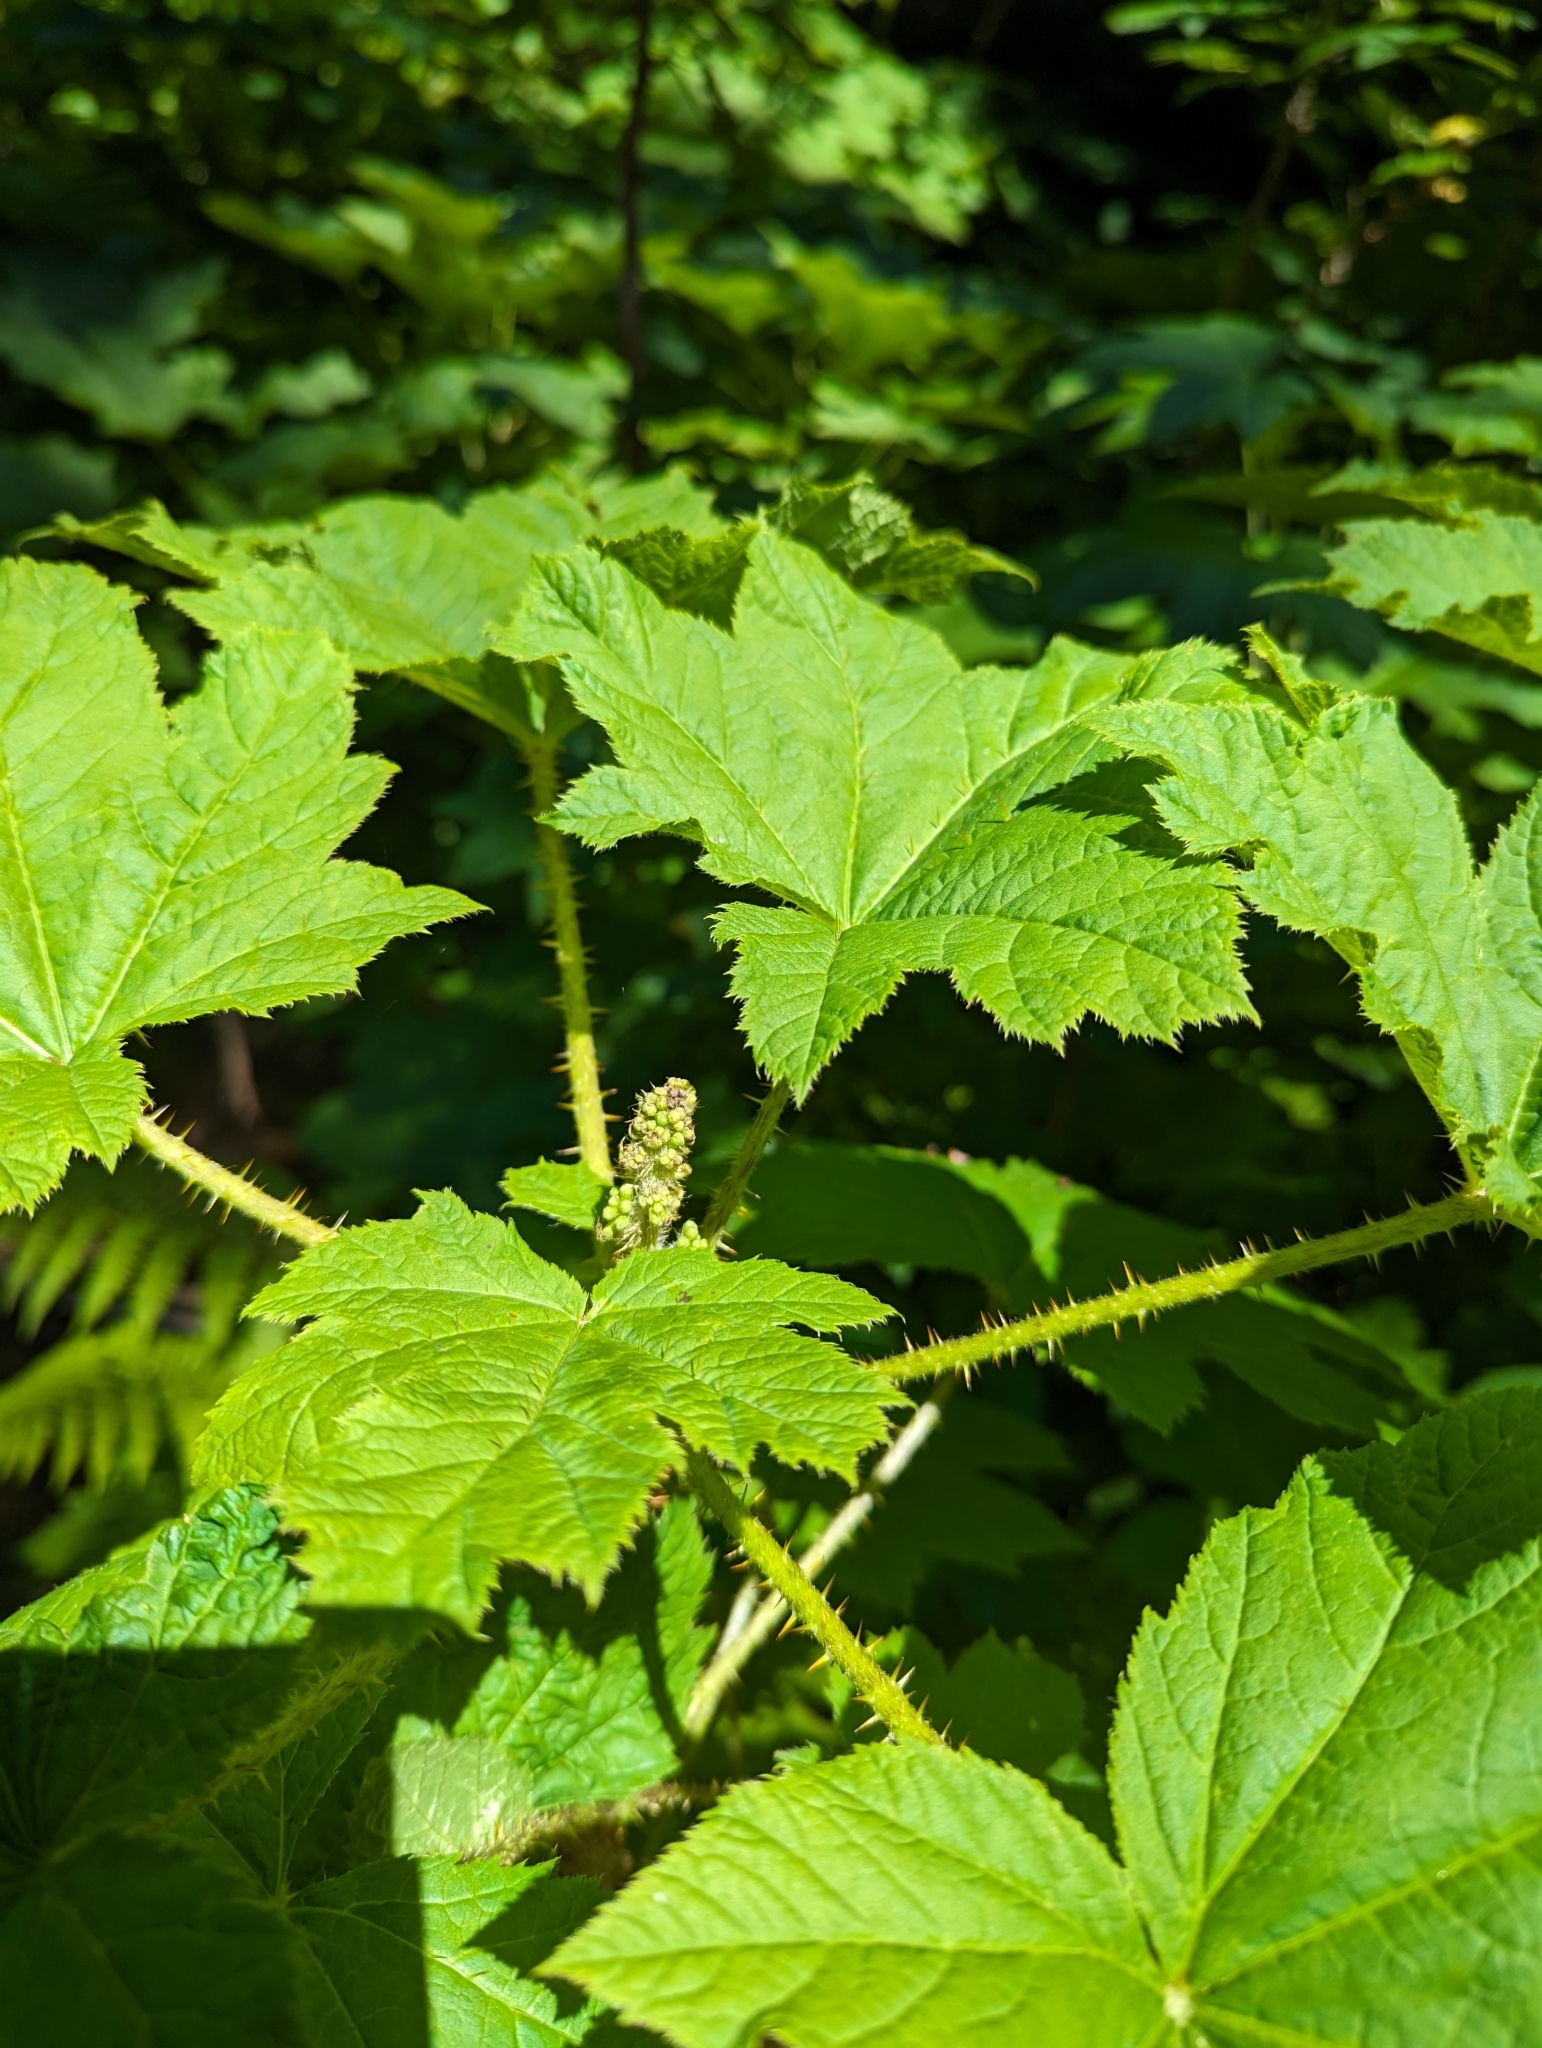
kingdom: Plantae
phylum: Tracheophyta
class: Magnoliopsida
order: Apiales
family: Araliaceae
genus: Oplopanax
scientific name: Oplopanax horridus
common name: Devil's walking-stick
